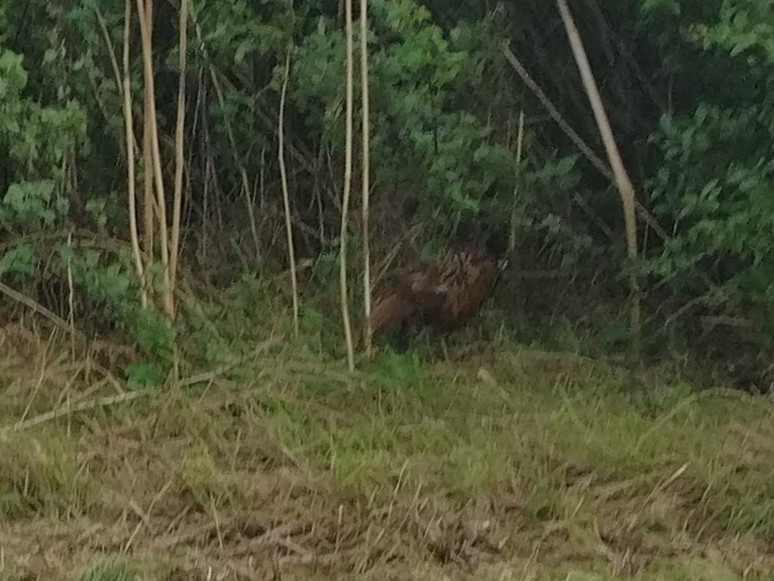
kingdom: Animalia
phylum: Chordata
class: Aves
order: Galliformes
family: Phasianidae
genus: Phasianus
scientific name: Phasianus colchicus
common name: Common pheasant
